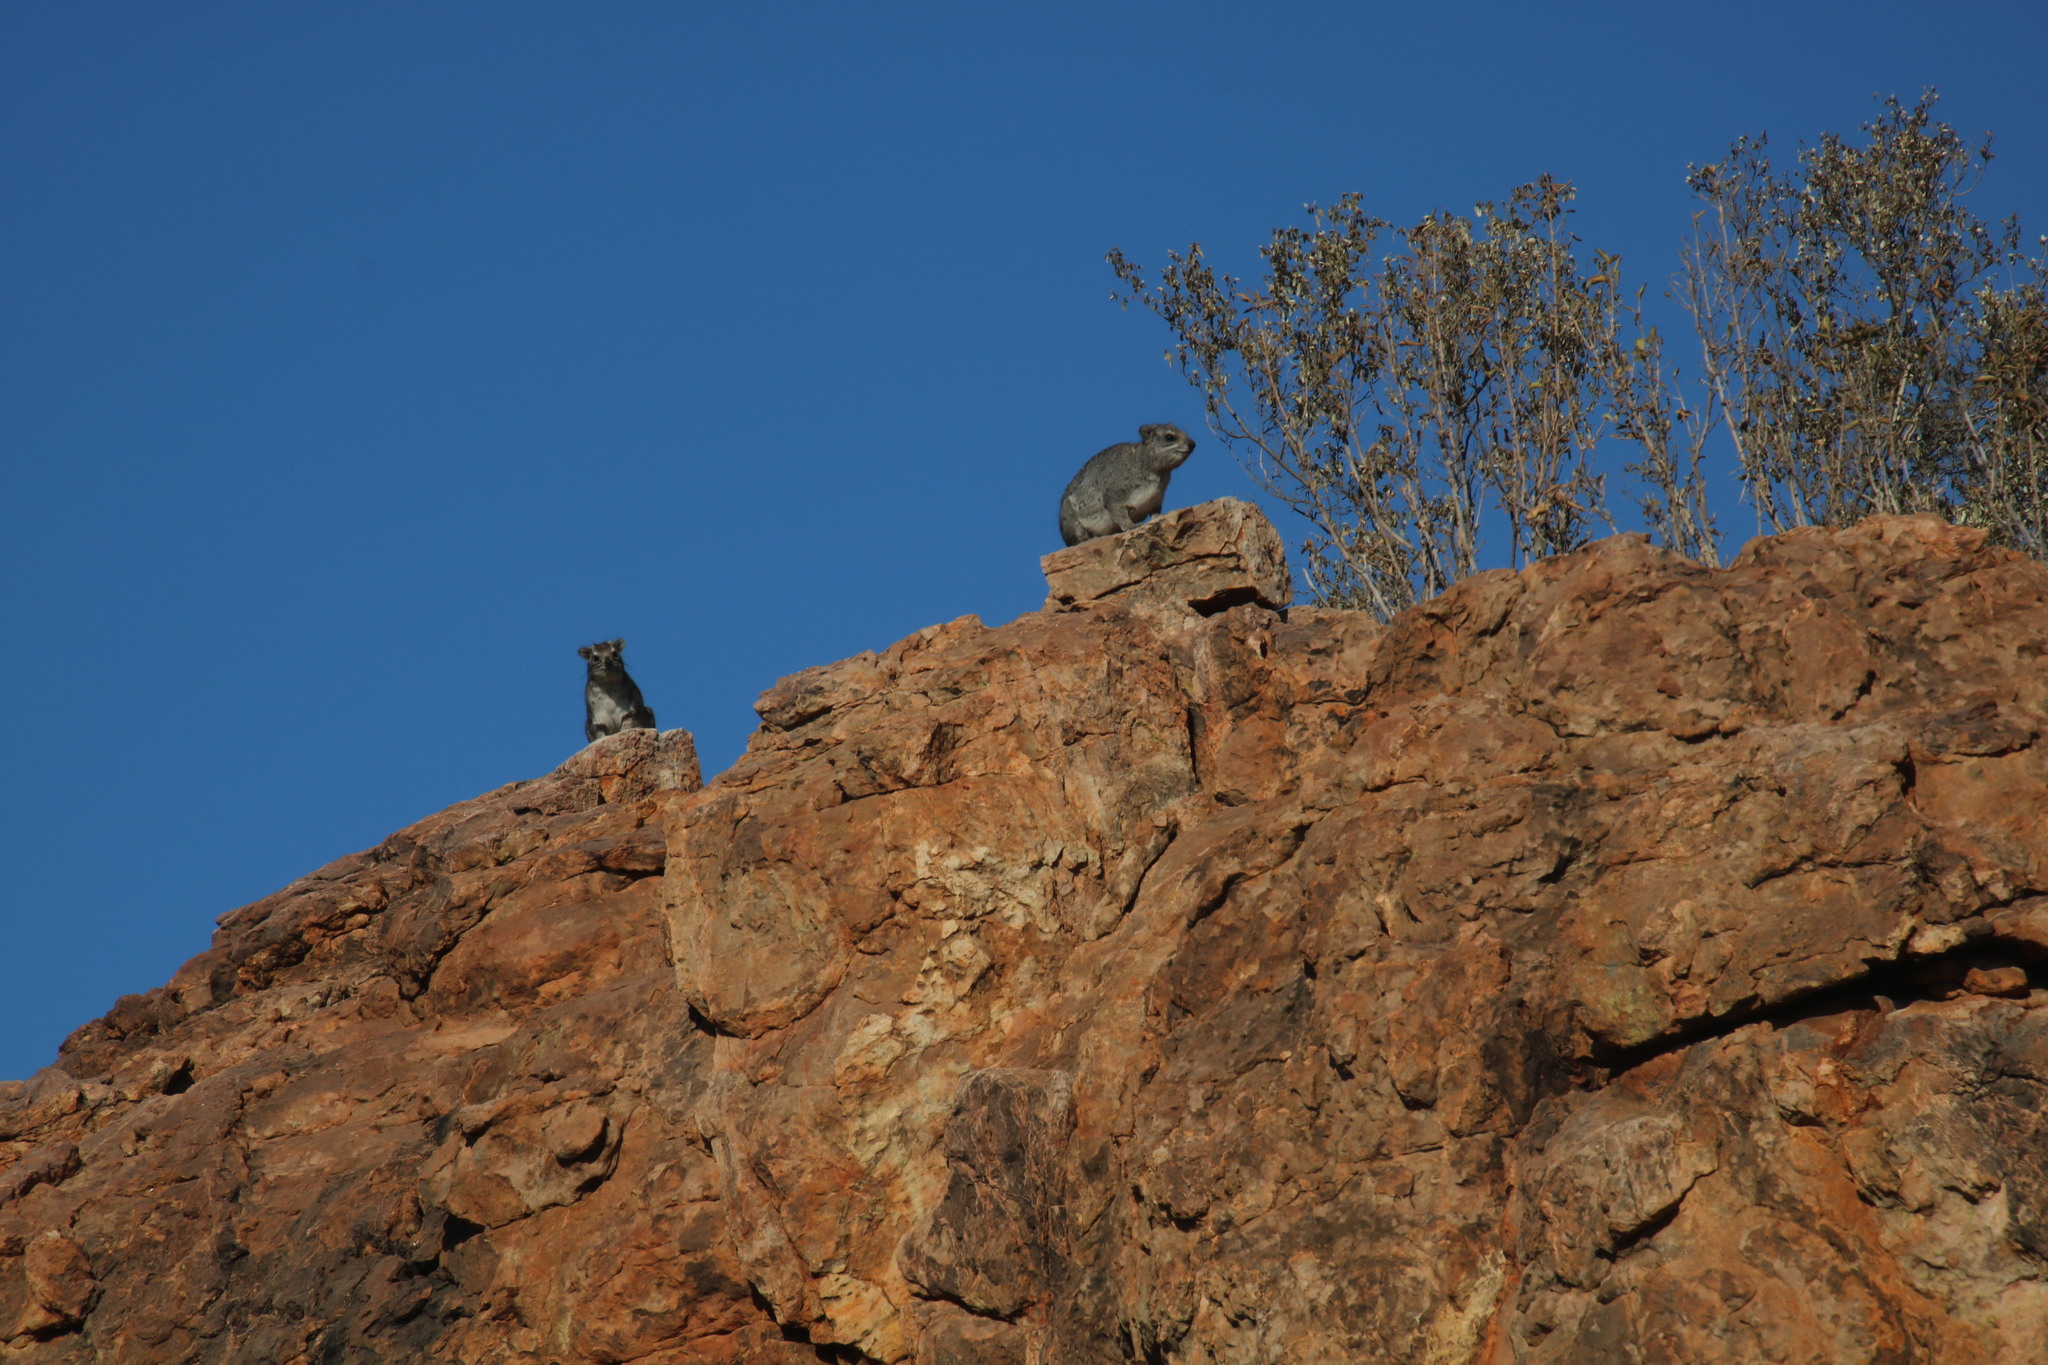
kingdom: Animalia
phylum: Chordata
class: Mammalia
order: Hyracoidea
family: Procaviidae
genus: Procavia
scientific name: Procavia capensis
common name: Rock hyrax
